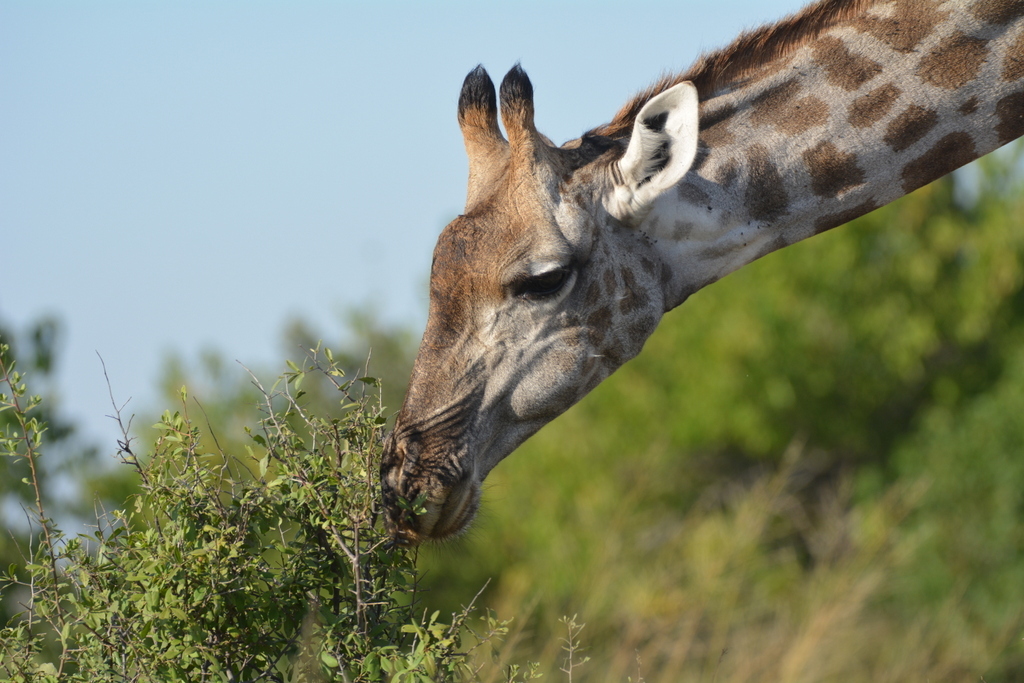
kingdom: Animalia
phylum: Chordata
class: Mammalia
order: Artiodactyla
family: Giraffidae
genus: Giraffa
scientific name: Giraffa giraffa
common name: Southern giraffe
